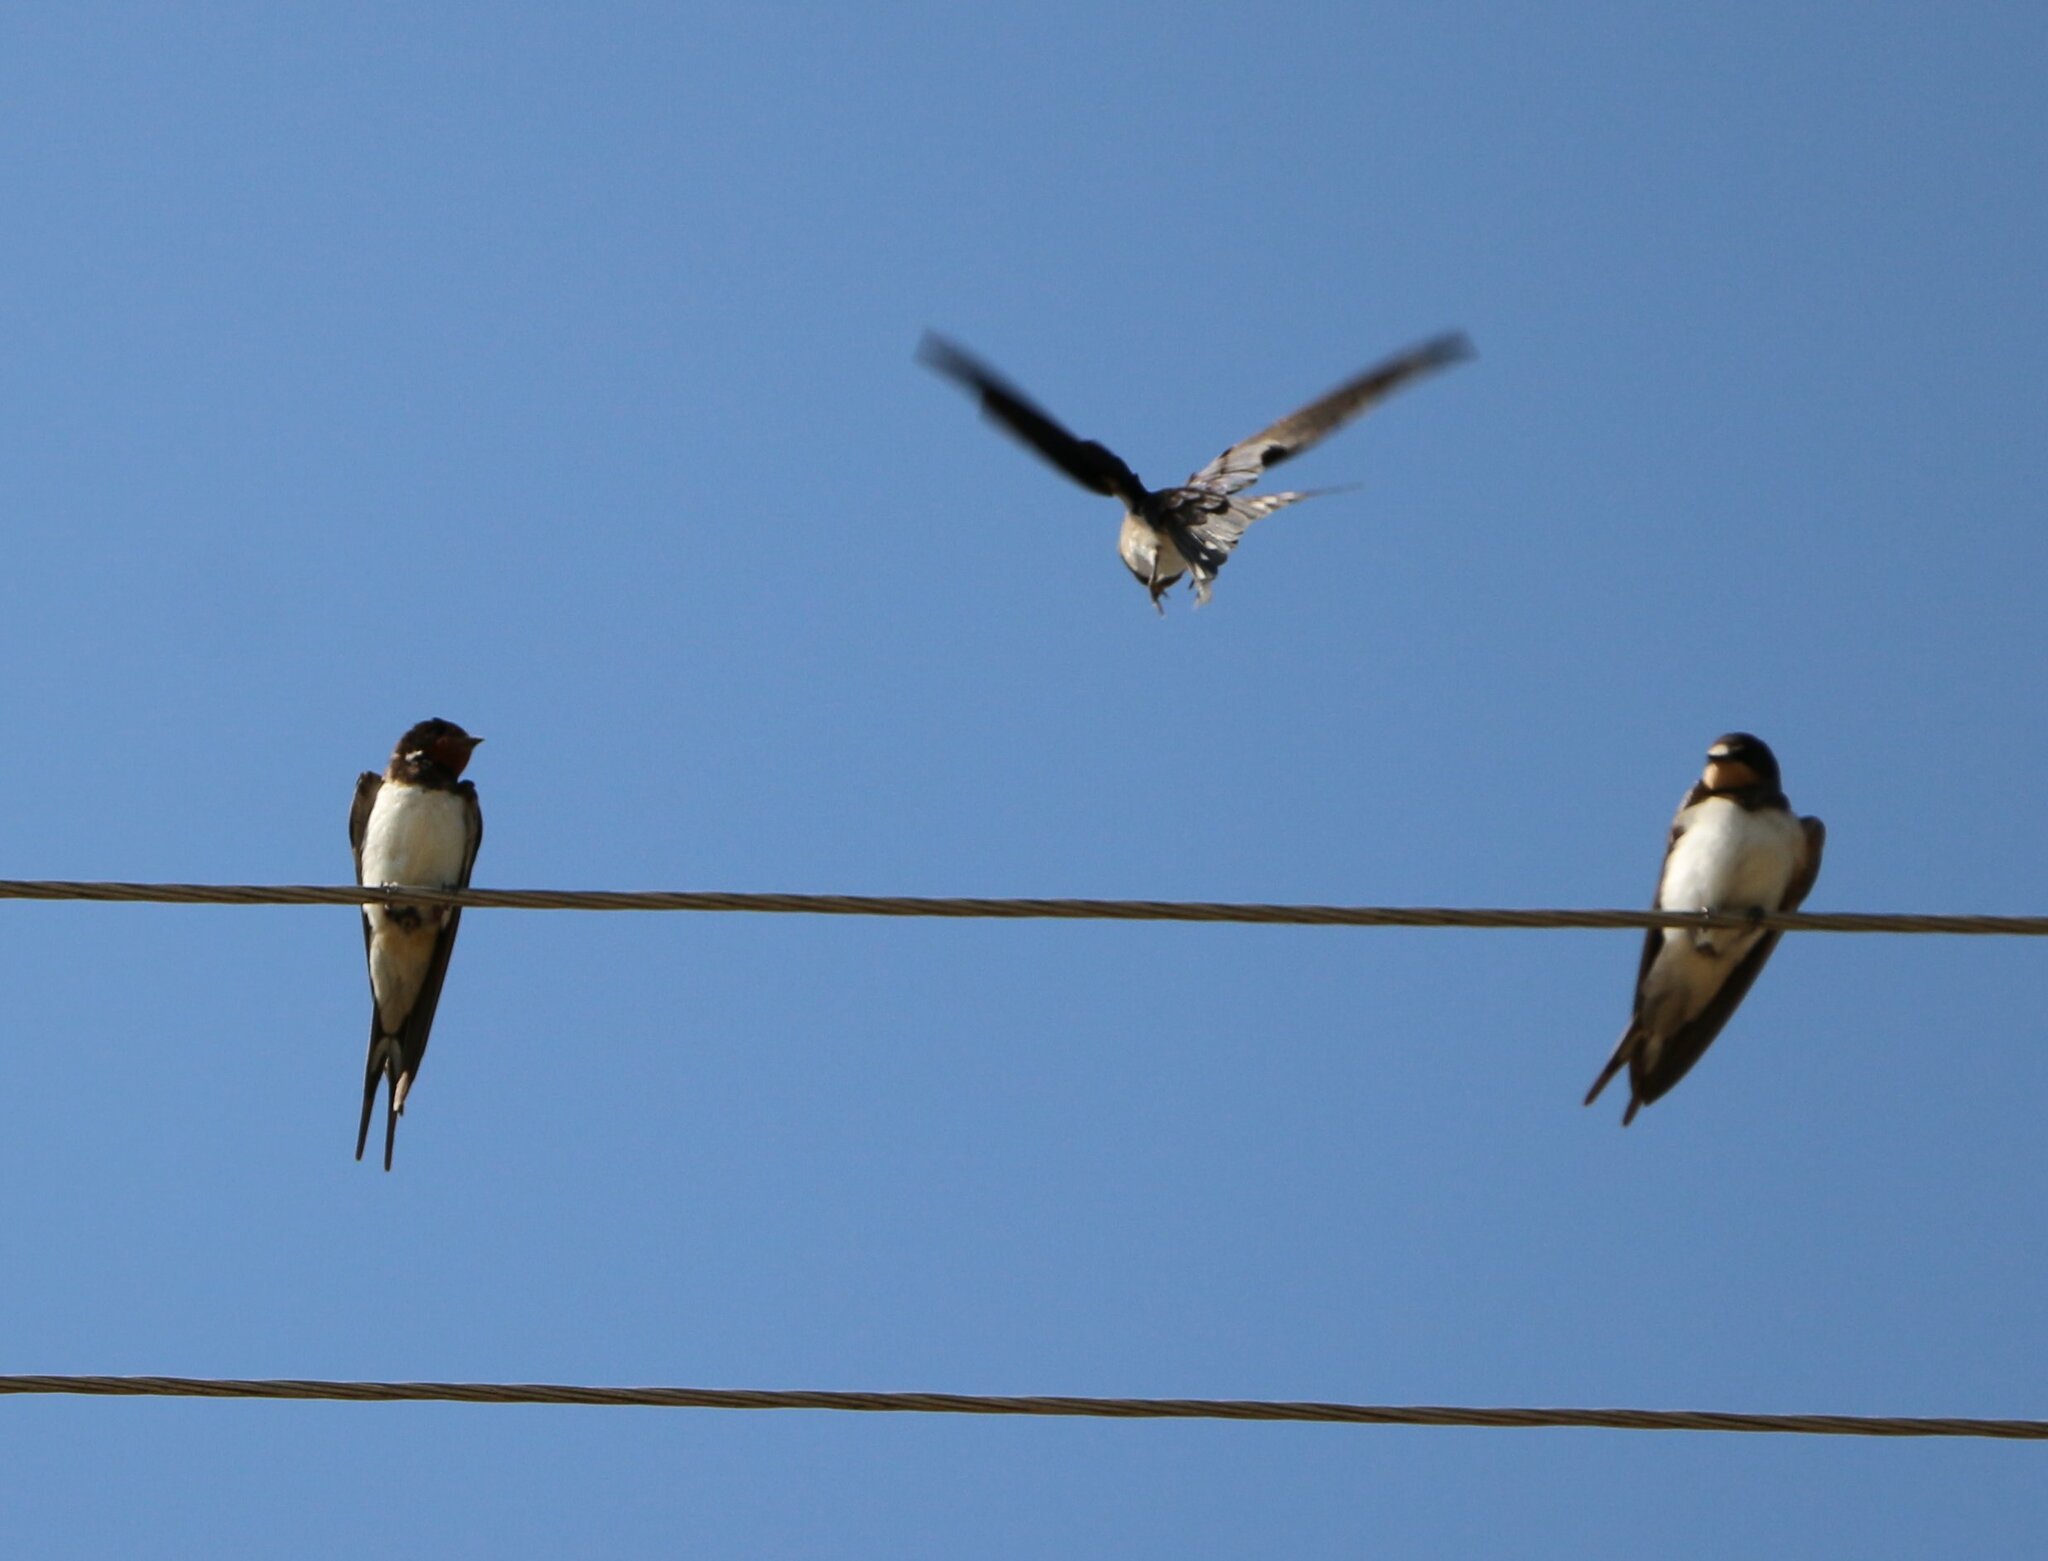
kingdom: Animalia
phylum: Chordata
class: Aves
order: Passeriformes
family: Hirundinidae
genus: Hirundo
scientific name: Hirundo rustica
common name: Barn swallow
